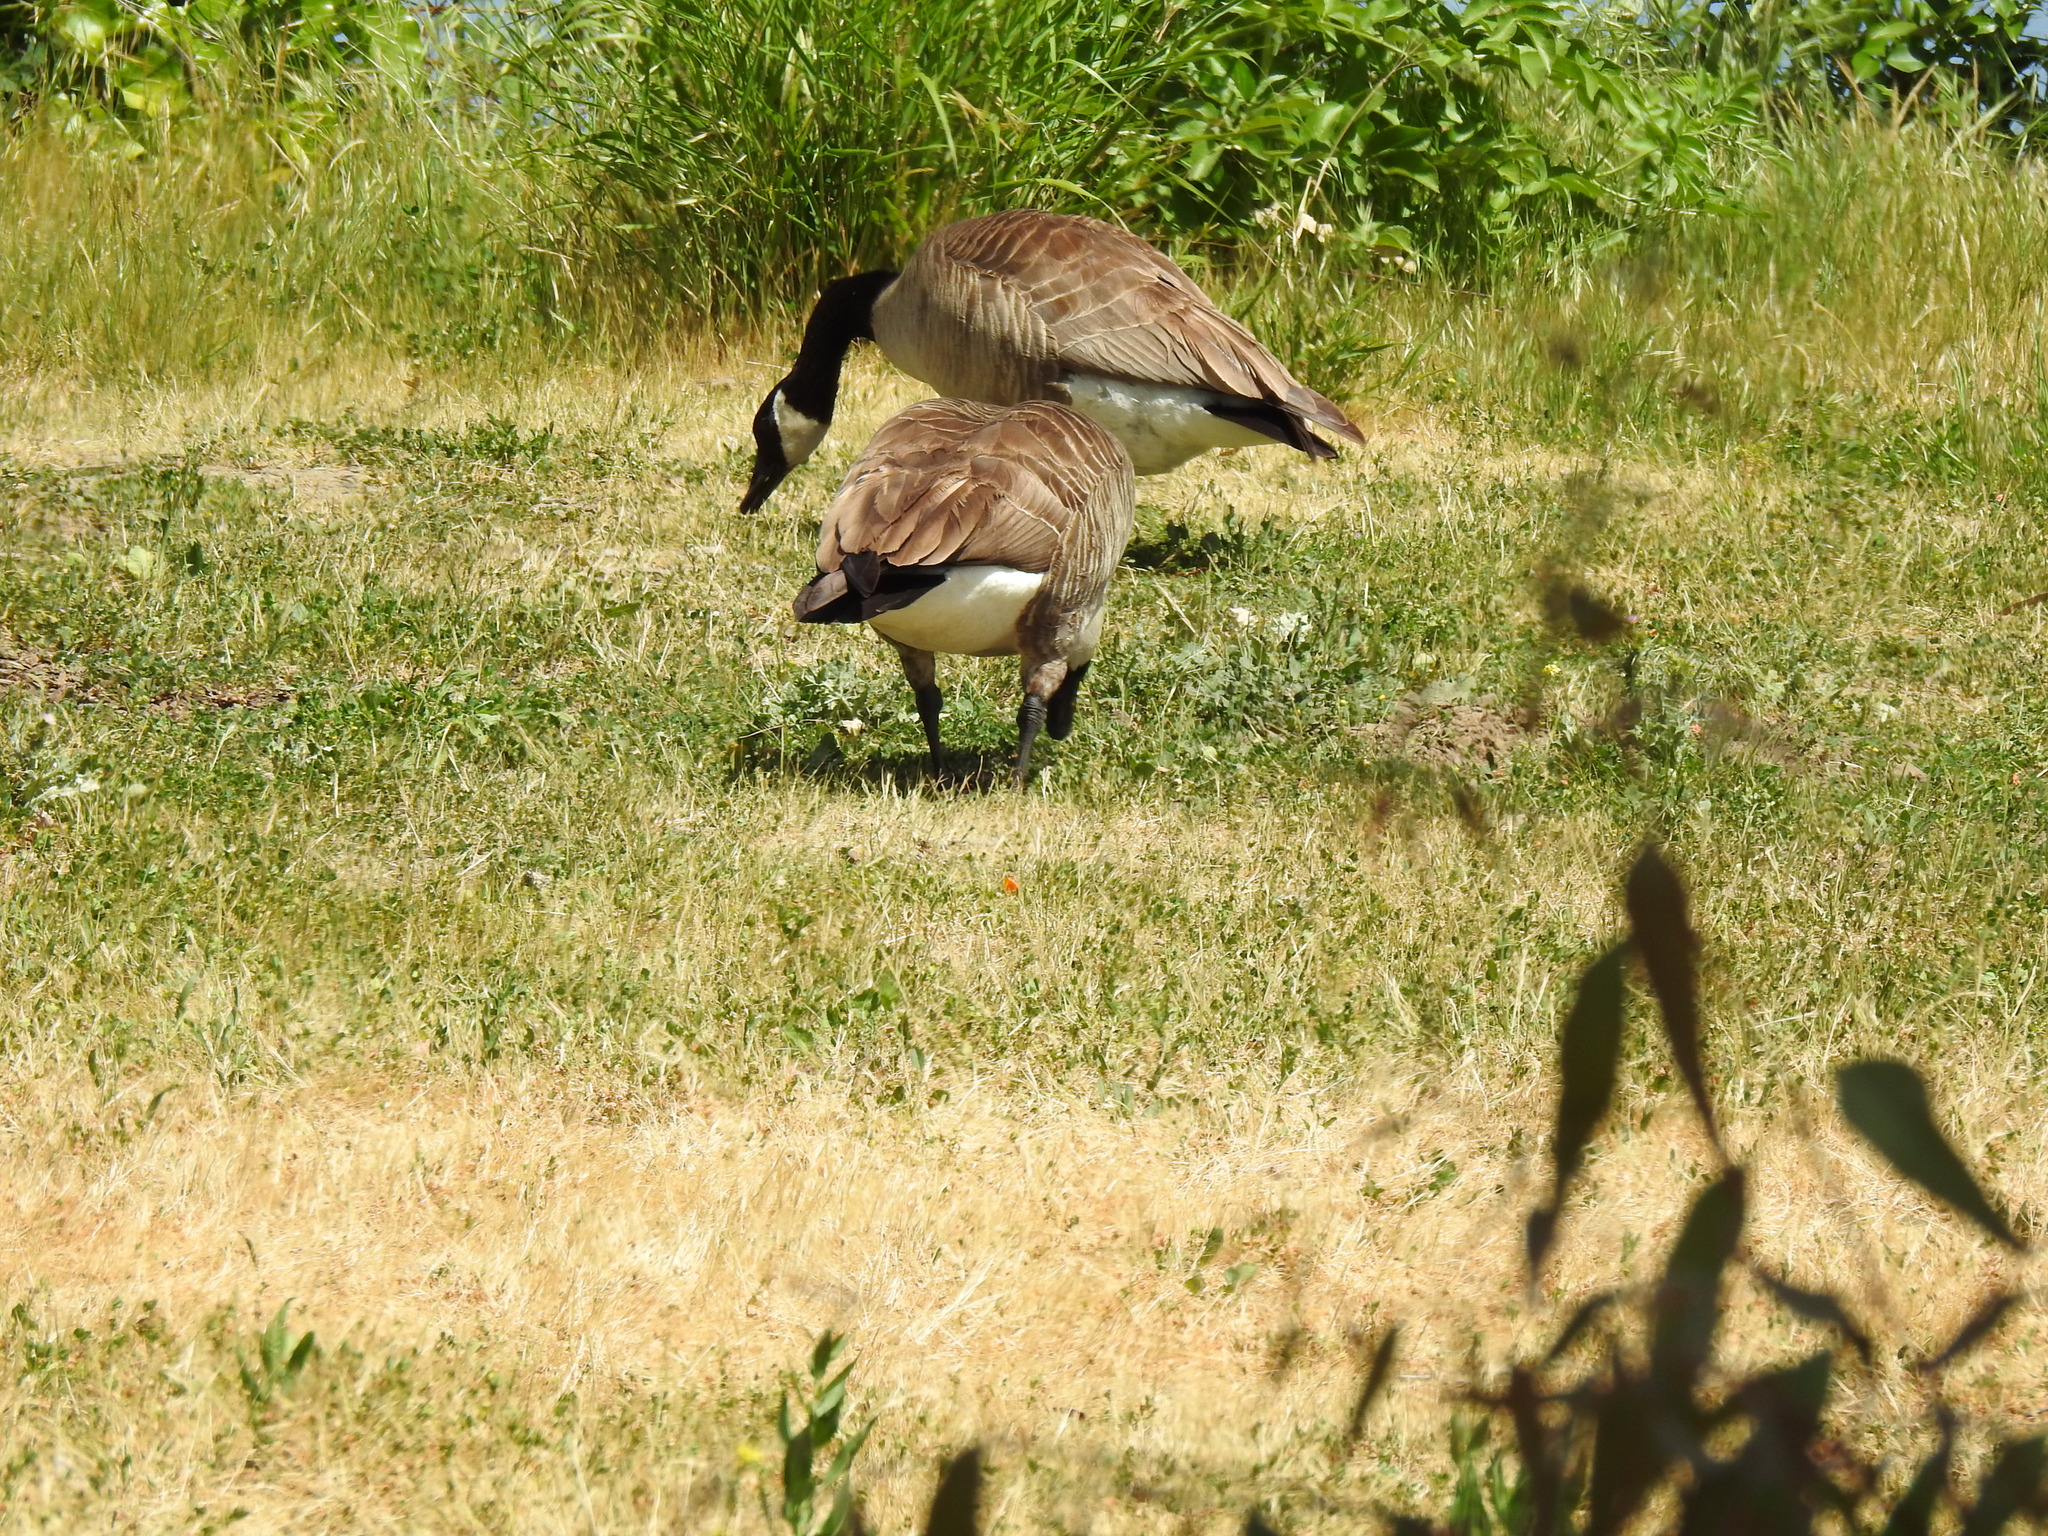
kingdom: Animalia
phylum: Chordata
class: Aves
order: Anseriformes
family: Anatidae
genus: Branta
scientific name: Branta canadensis
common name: Canada goose
